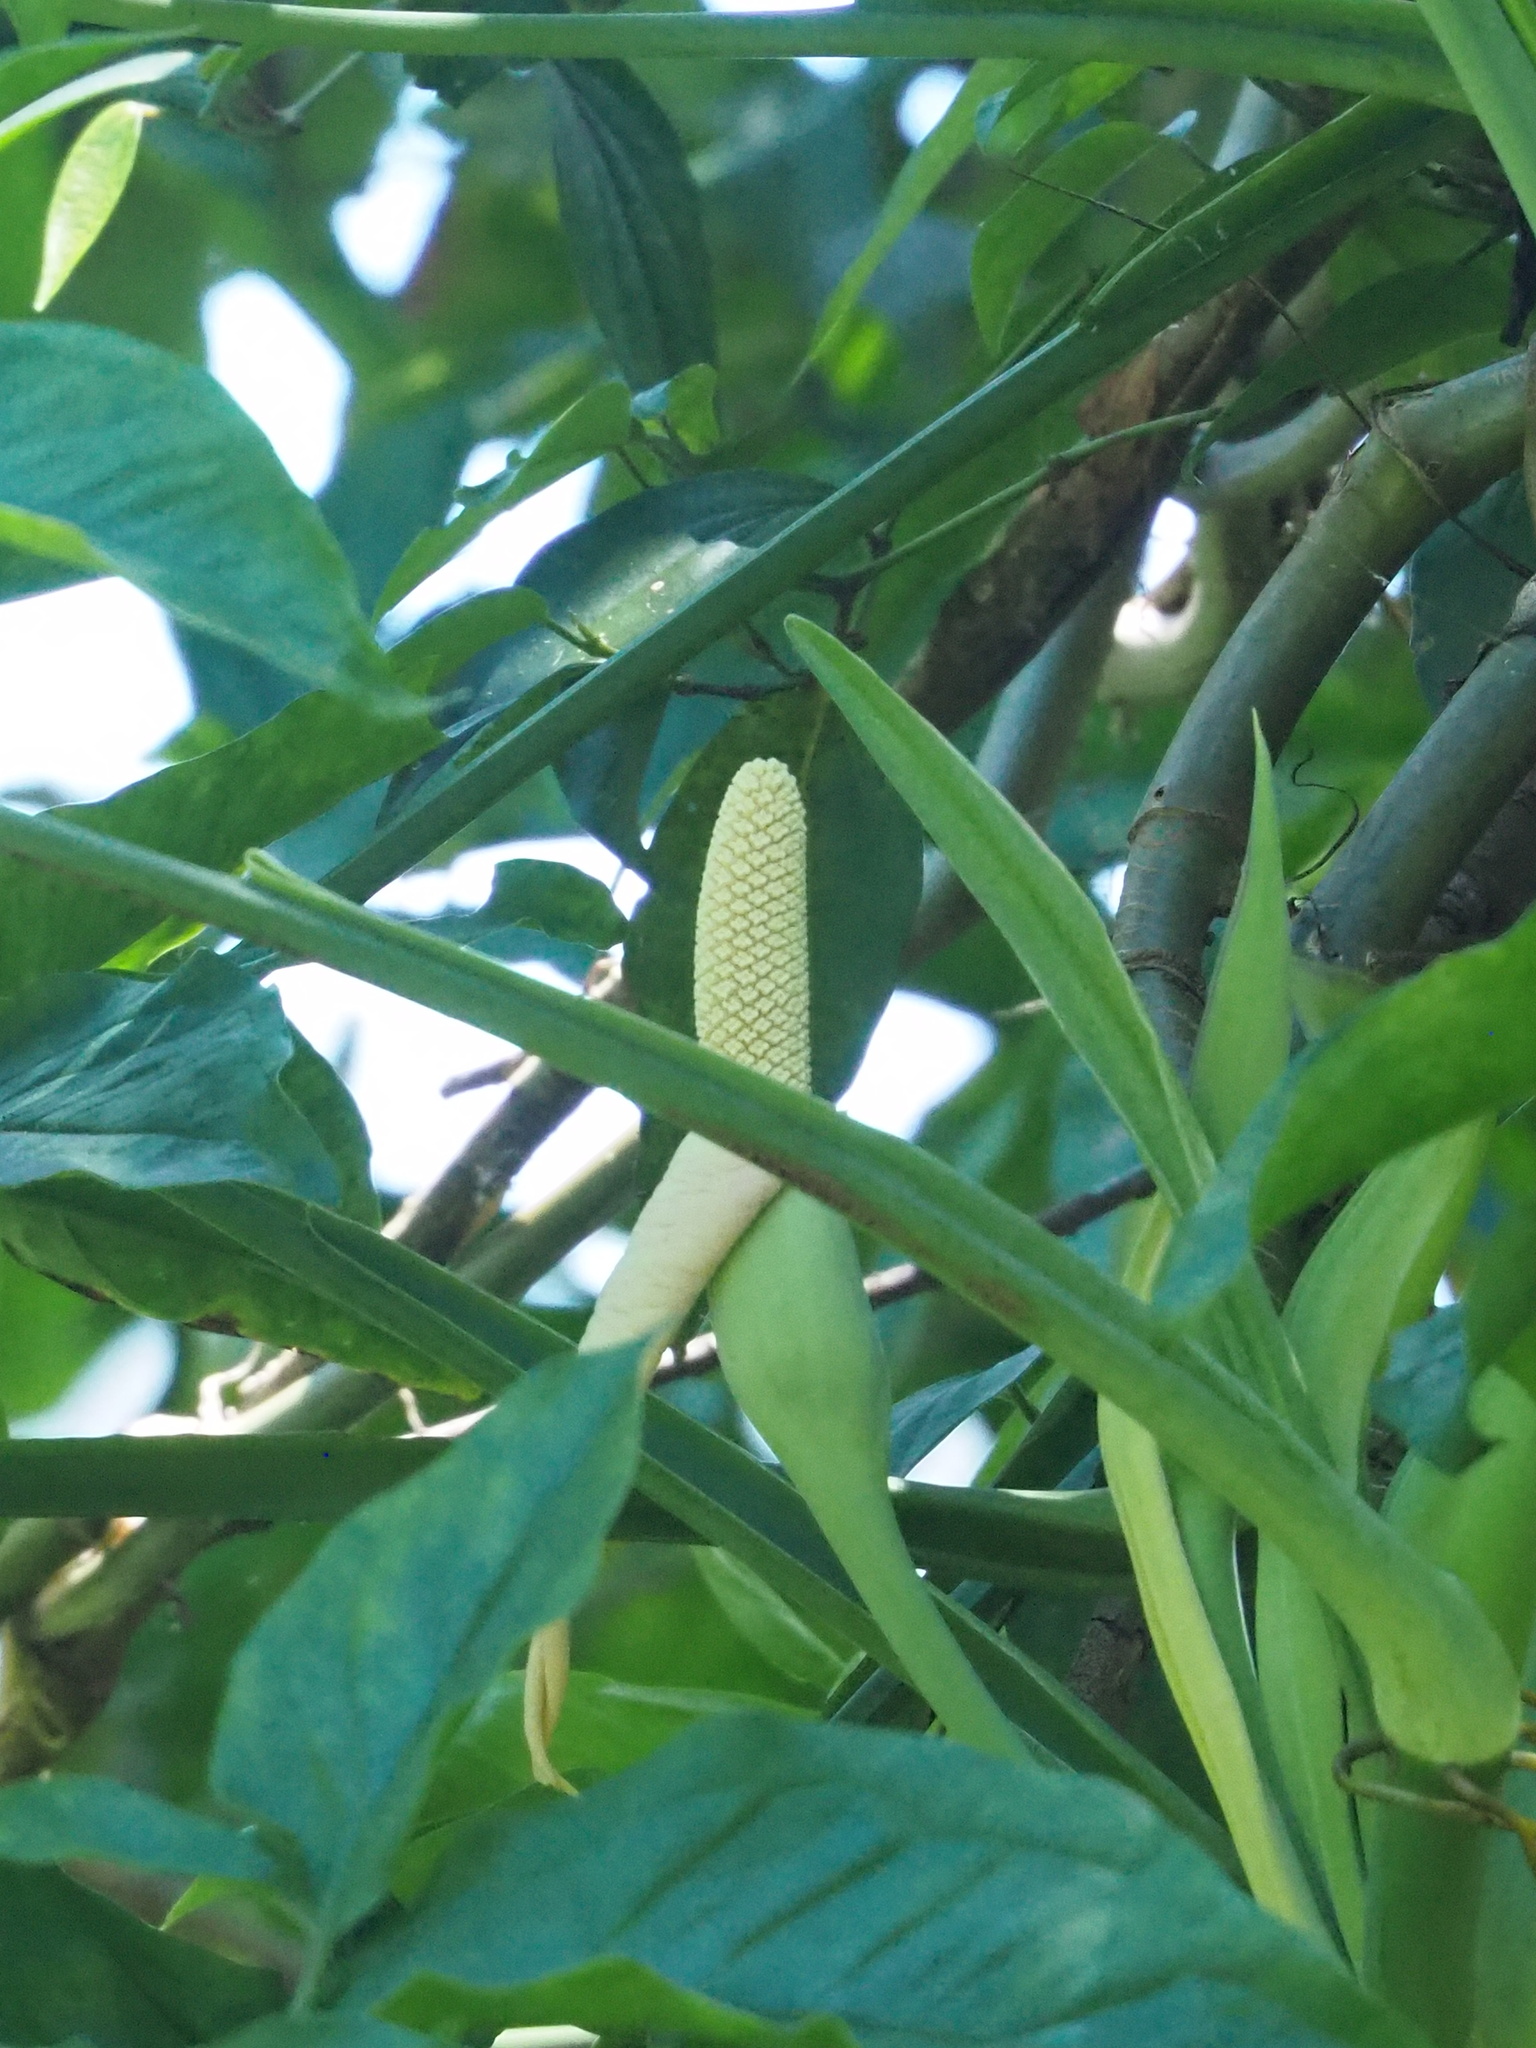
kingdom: Plantae
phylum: Tracheophyta
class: Liliopsida
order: Alismatales
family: Araceae
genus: Syngonium
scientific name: Syngonium angustatum
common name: Fivefingers
